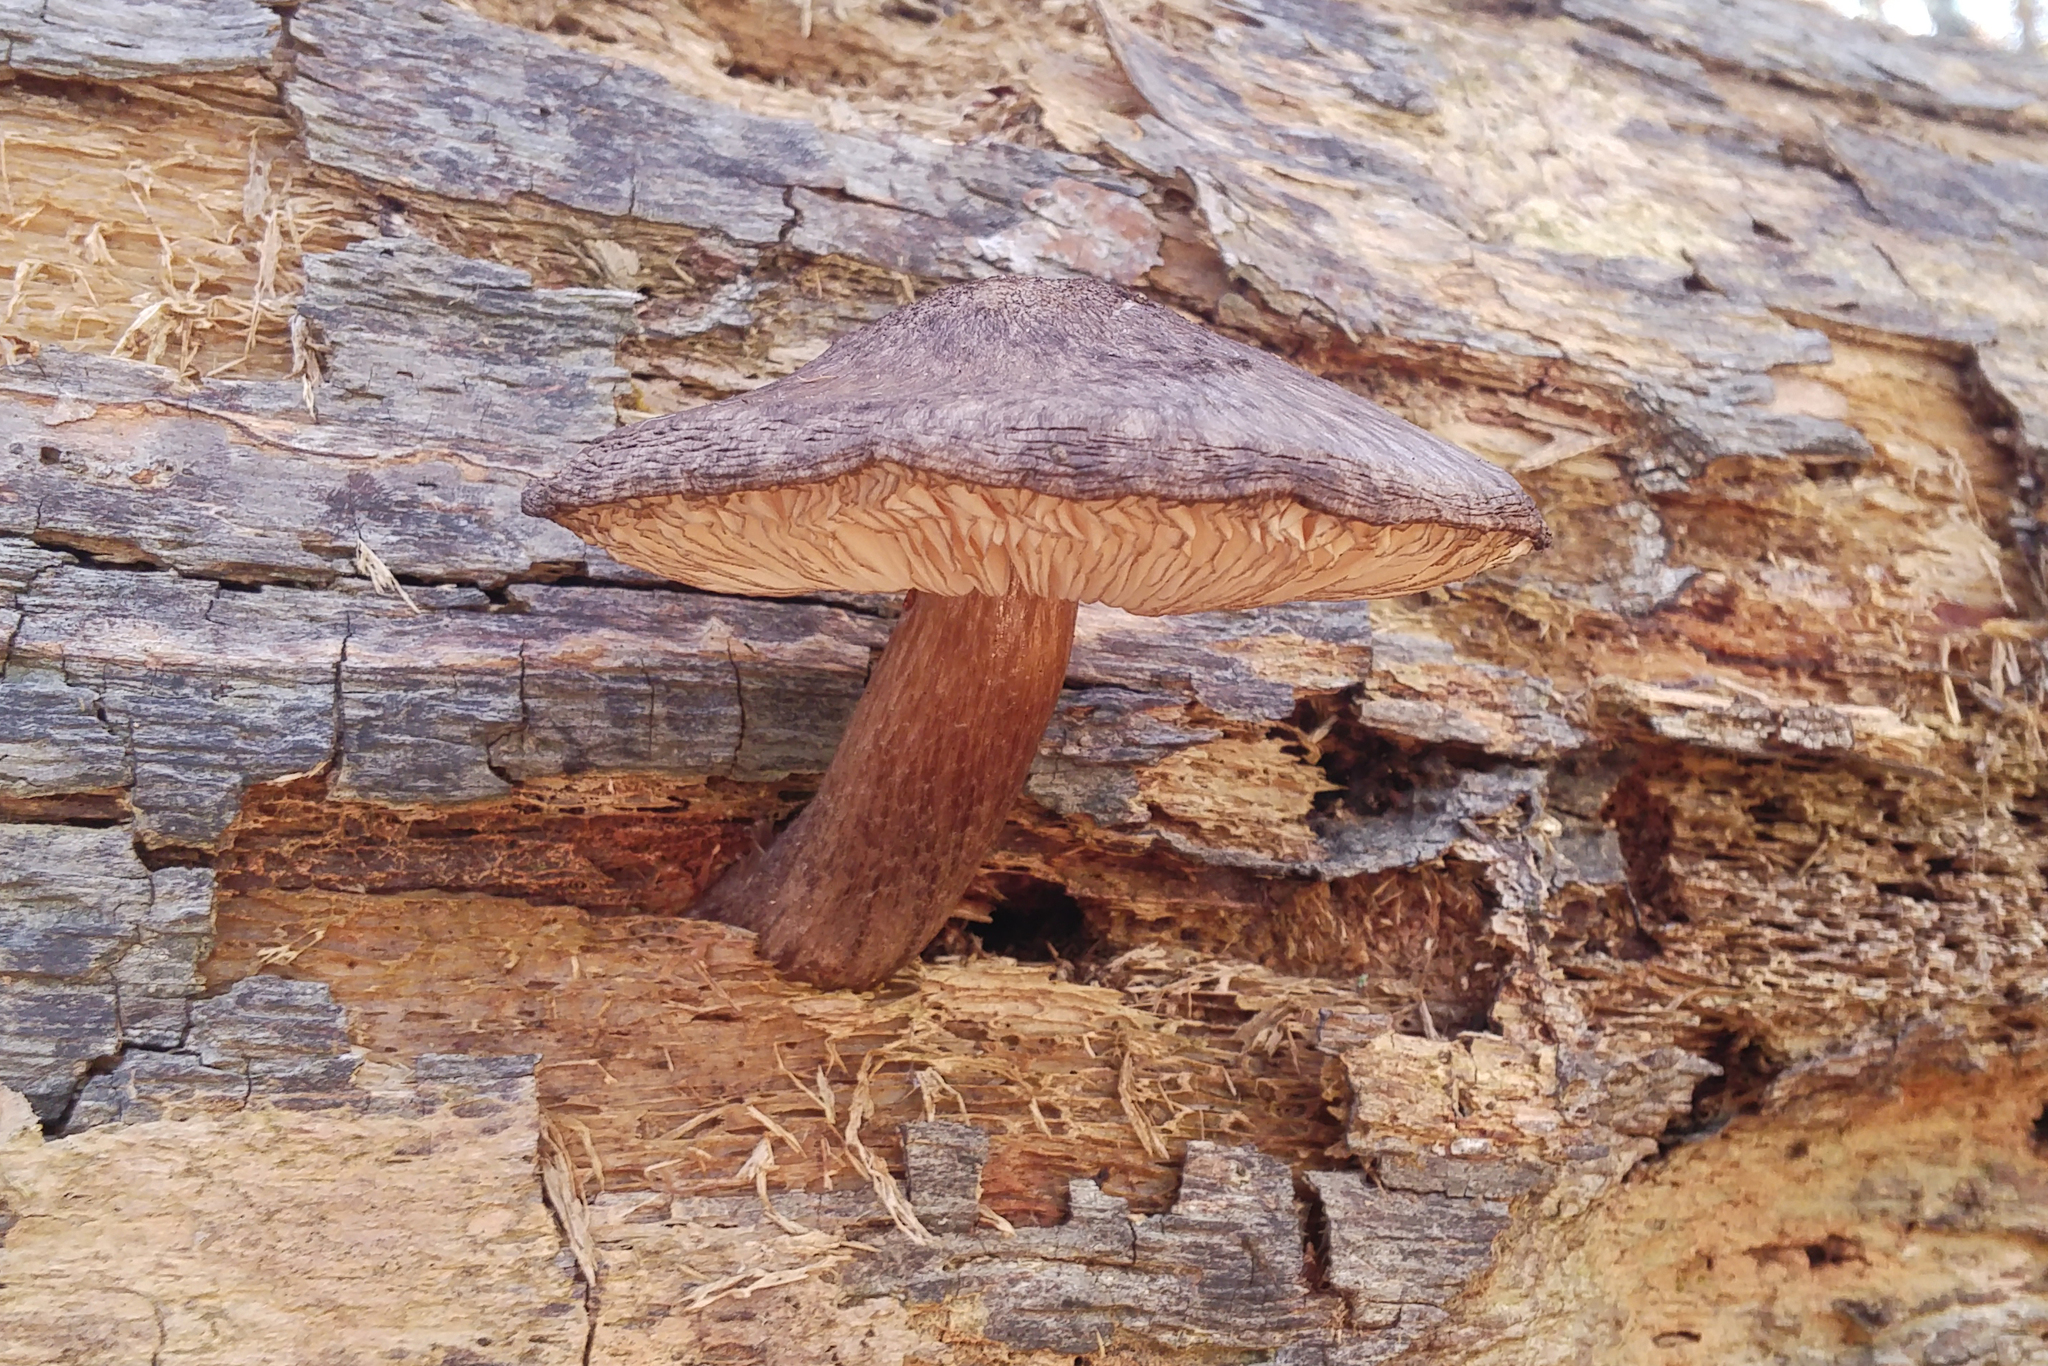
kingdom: Fungi
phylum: Basidiomycota
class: Agaricomycetes
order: Agaricales
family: Pluteaceae
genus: Pluteus
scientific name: Pluteus cervinus
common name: Deer shield
